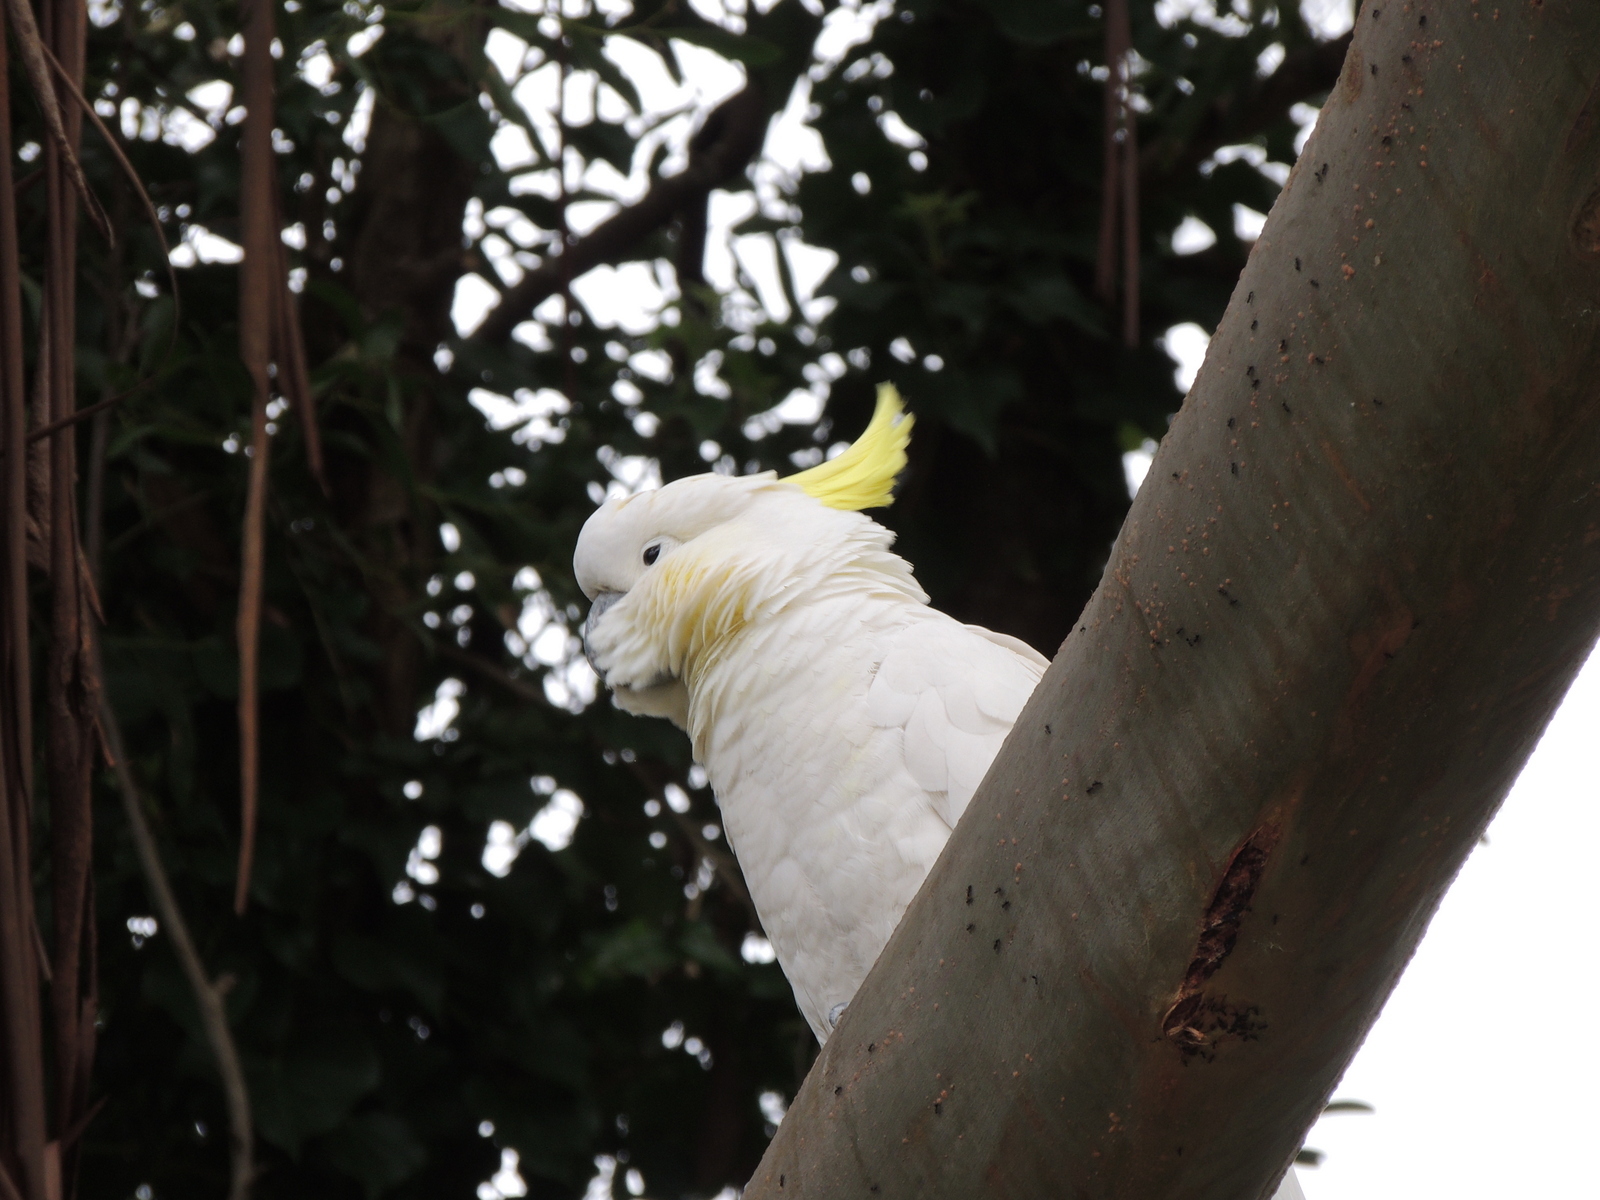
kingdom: Animalia
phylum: Chordata
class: Aves
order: Psittaciformes
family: Psittacidae
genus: Cacatua
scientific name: Cacatua galerita
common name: Sulphur-crested cockatoo
